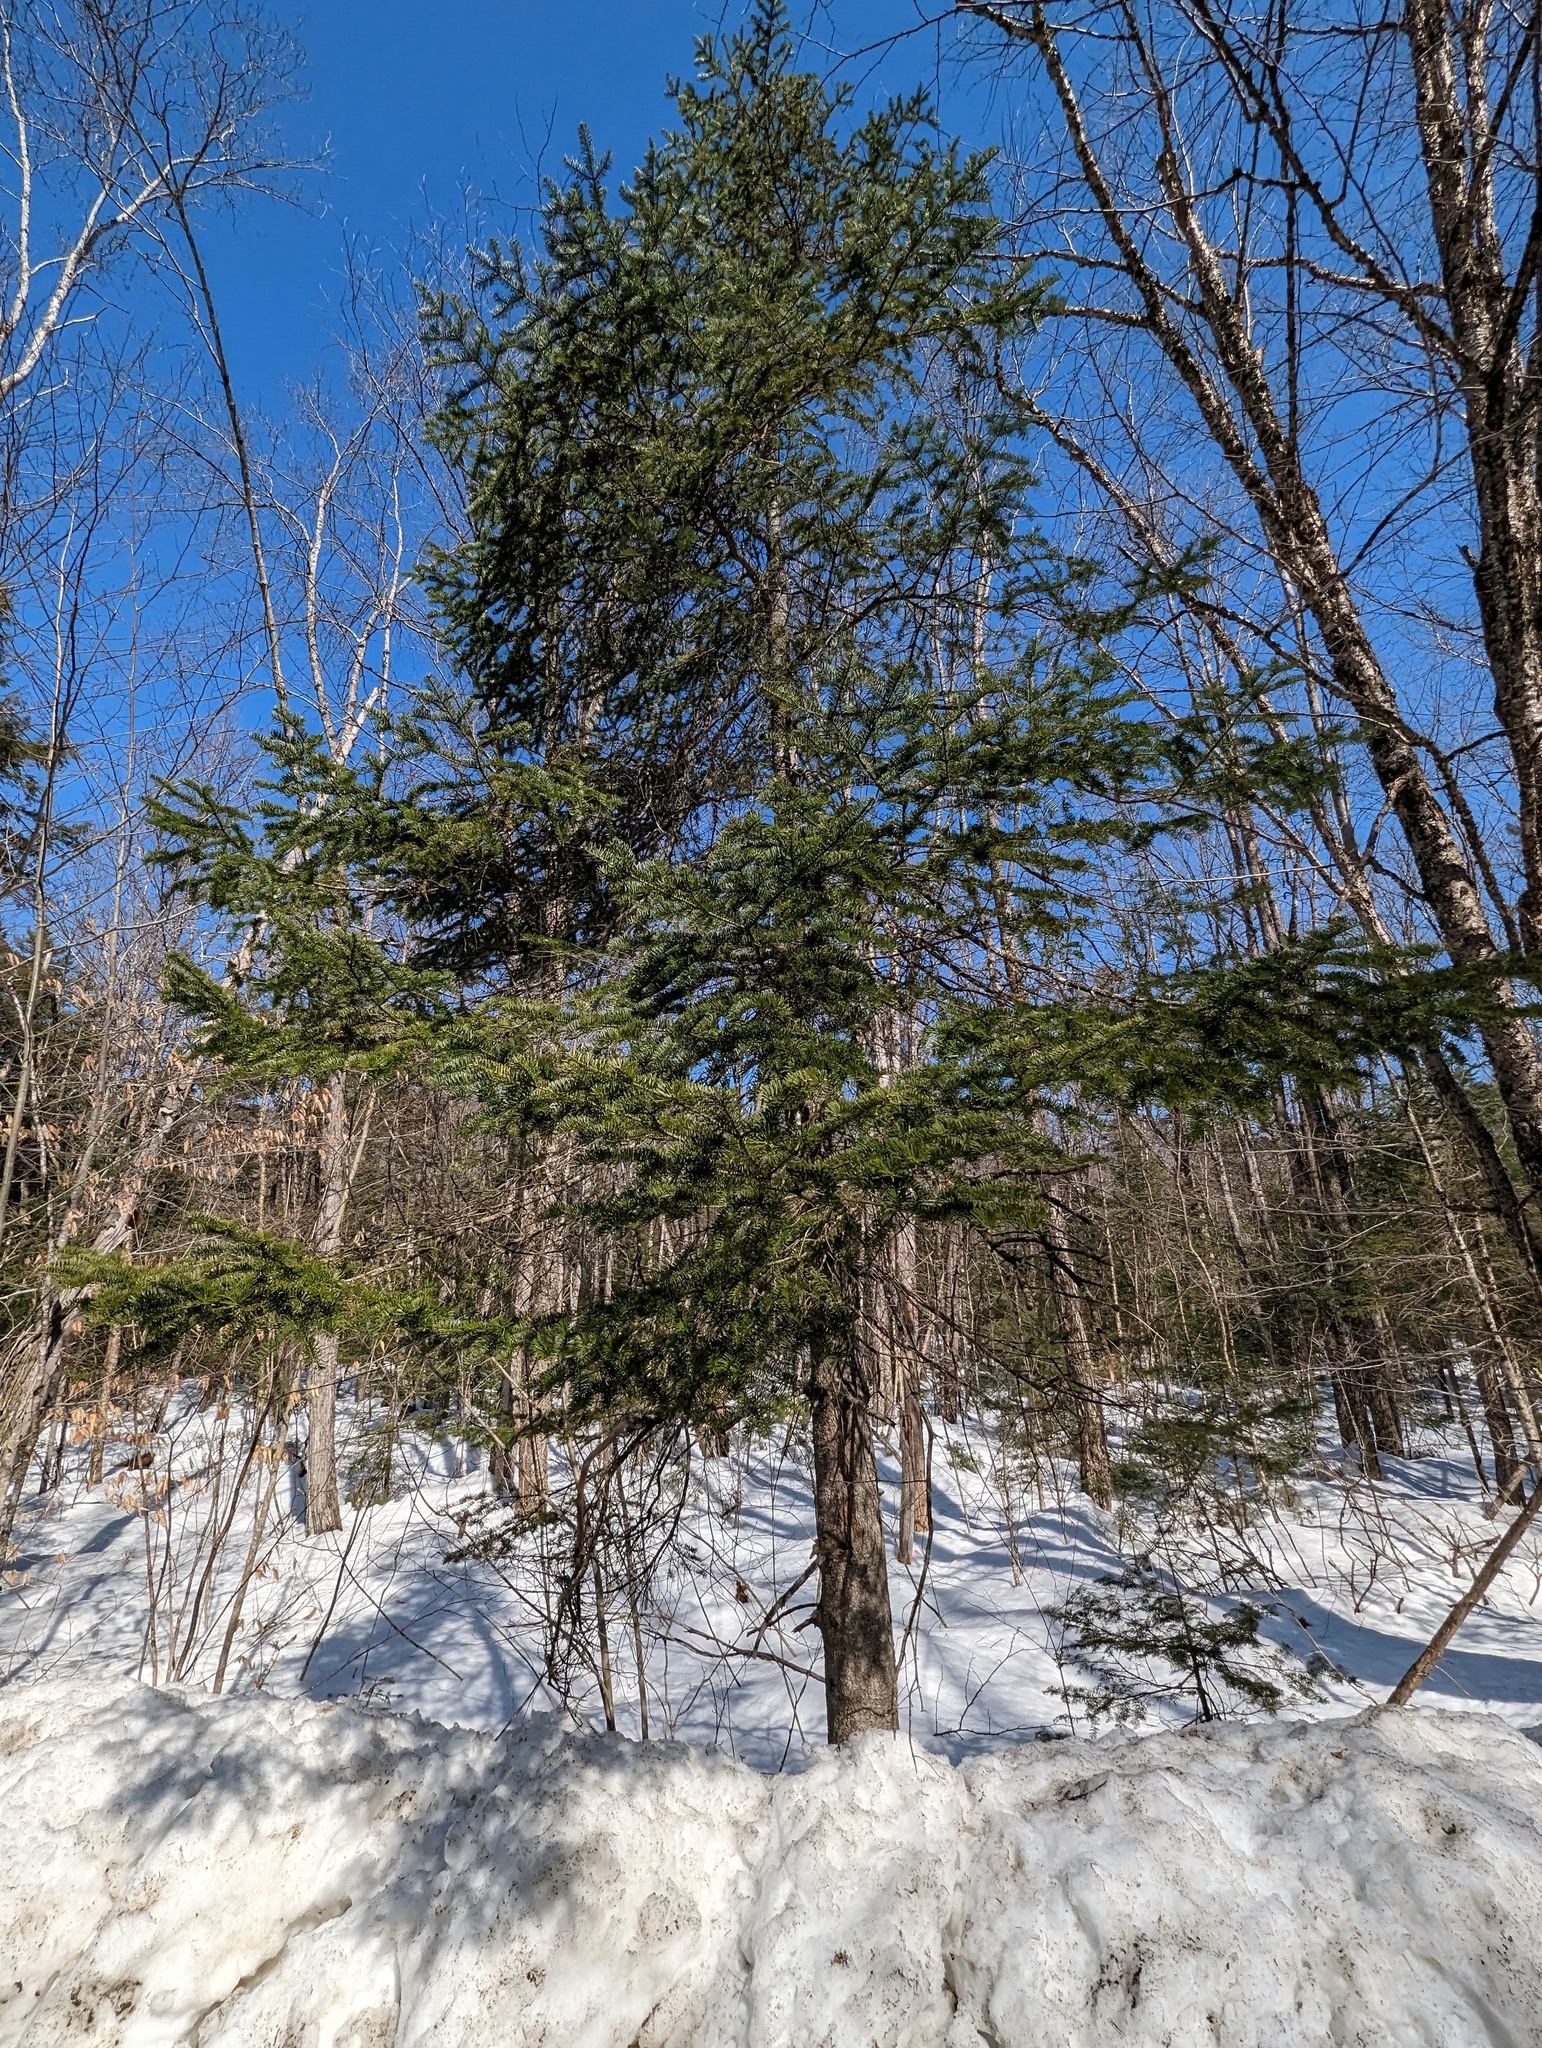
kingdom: Plantae
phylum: Tracheophyta
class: Pinopsida
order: Pinales
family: Pinaceae
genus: Abies
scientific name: Abies balsamea
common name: Balsam fir
